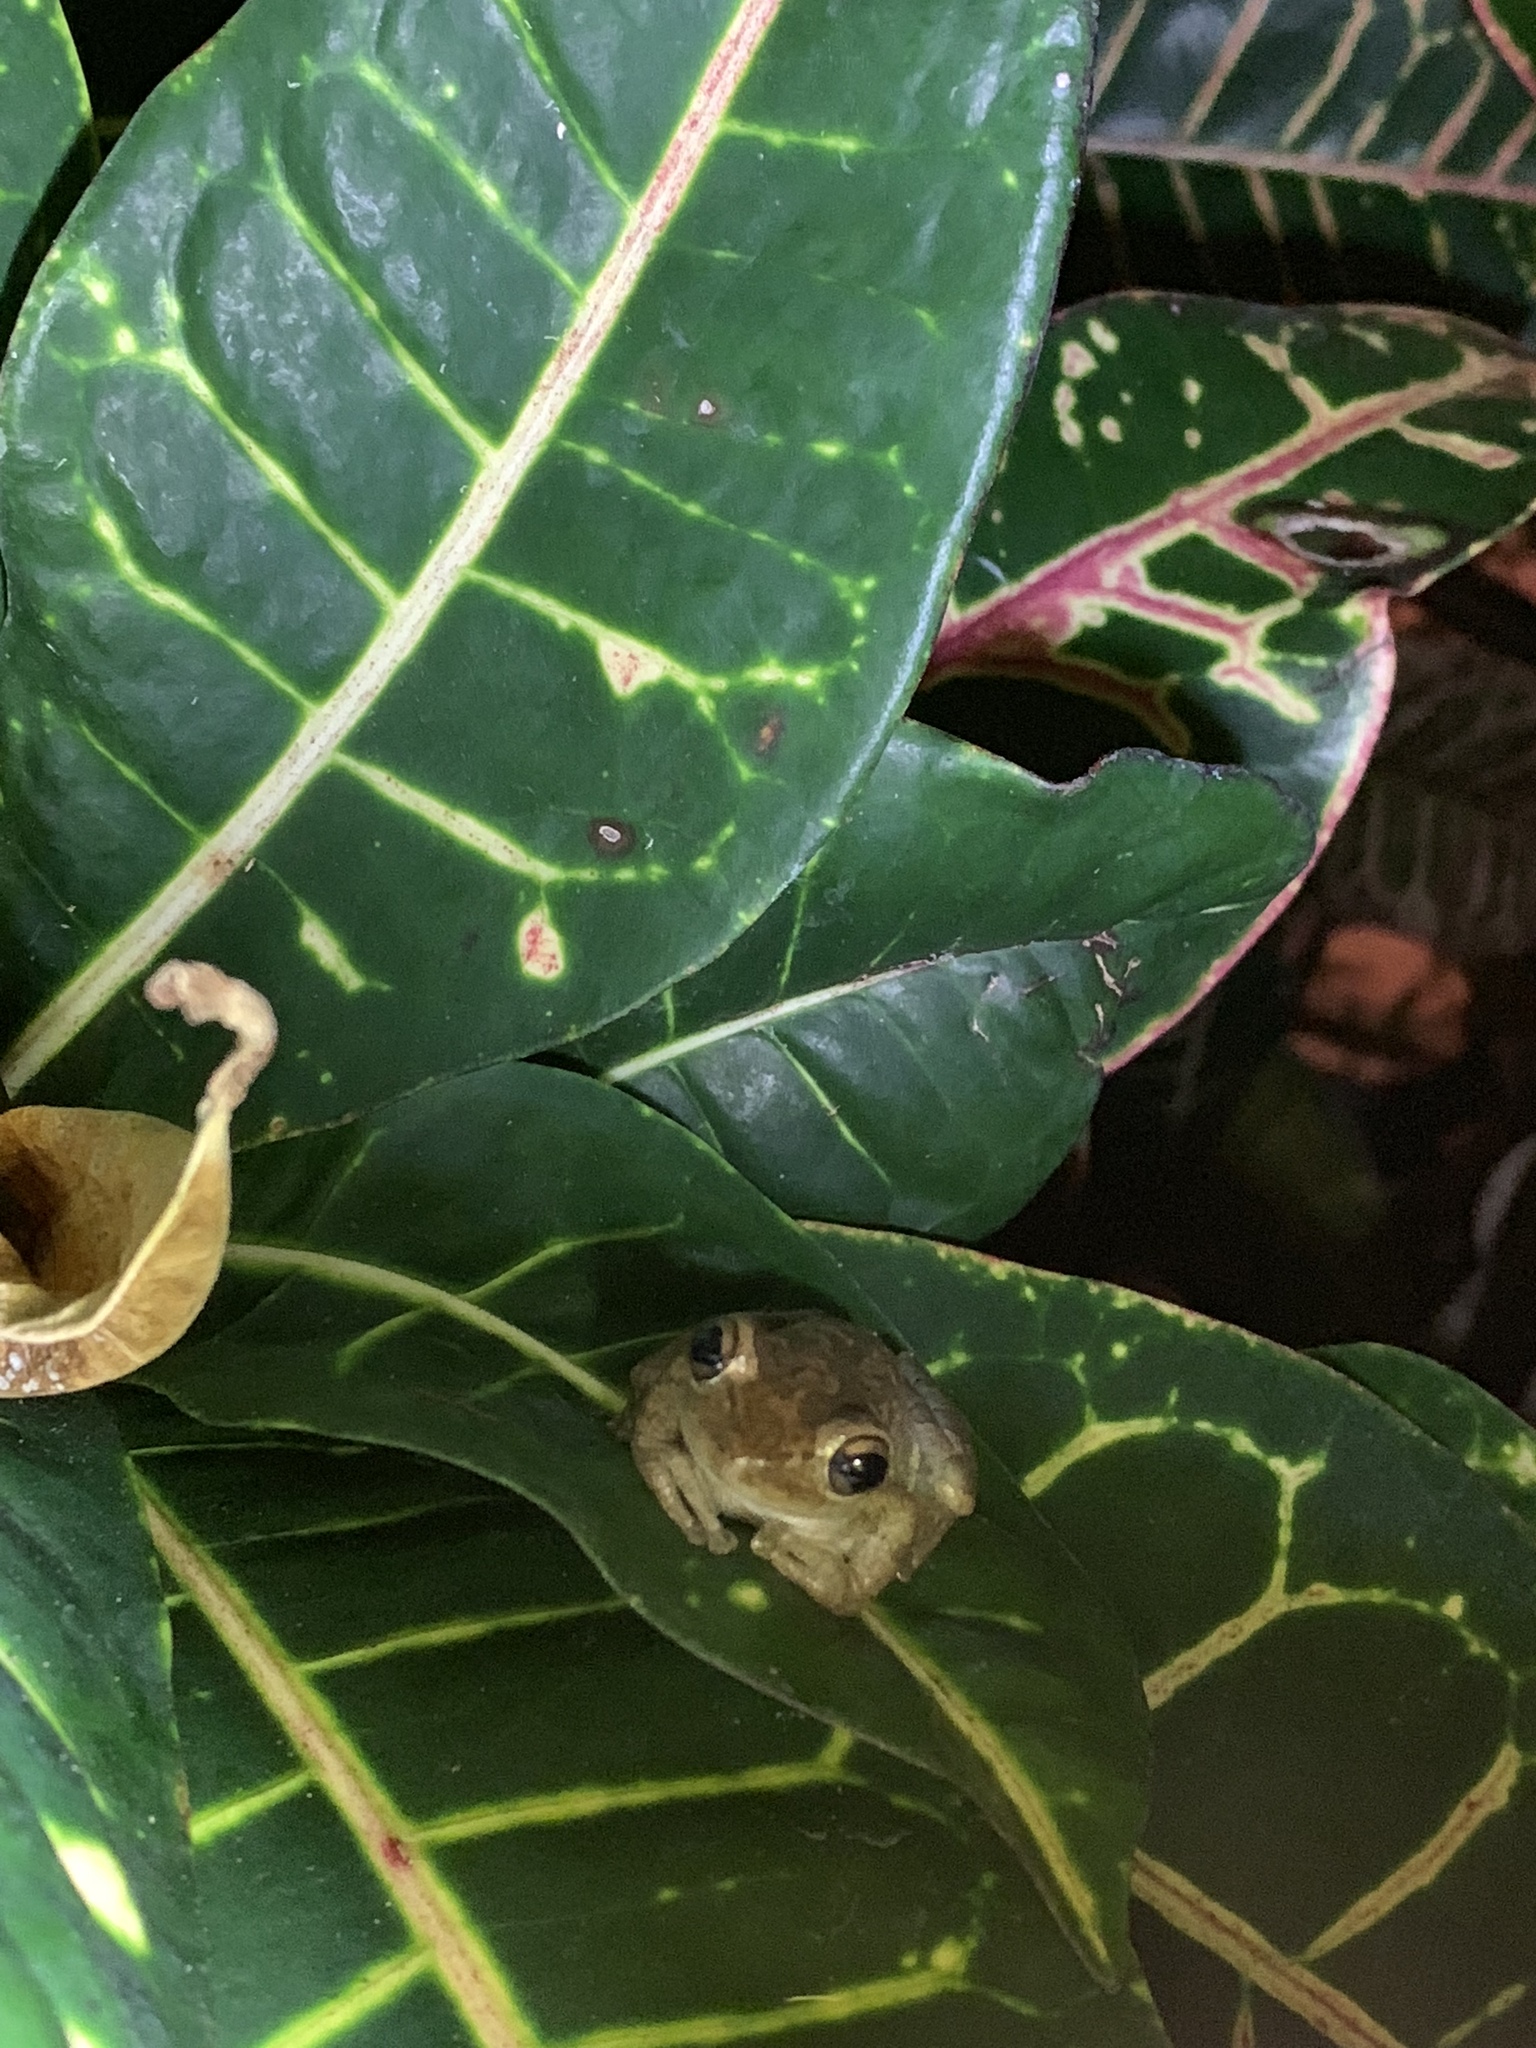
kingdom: Animalia
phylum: Chordata
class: Amphibia
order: Anura
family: Hylidae
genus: Osteopilus
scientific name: Osteopilus septentrionalis
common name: Cuban treefrog
